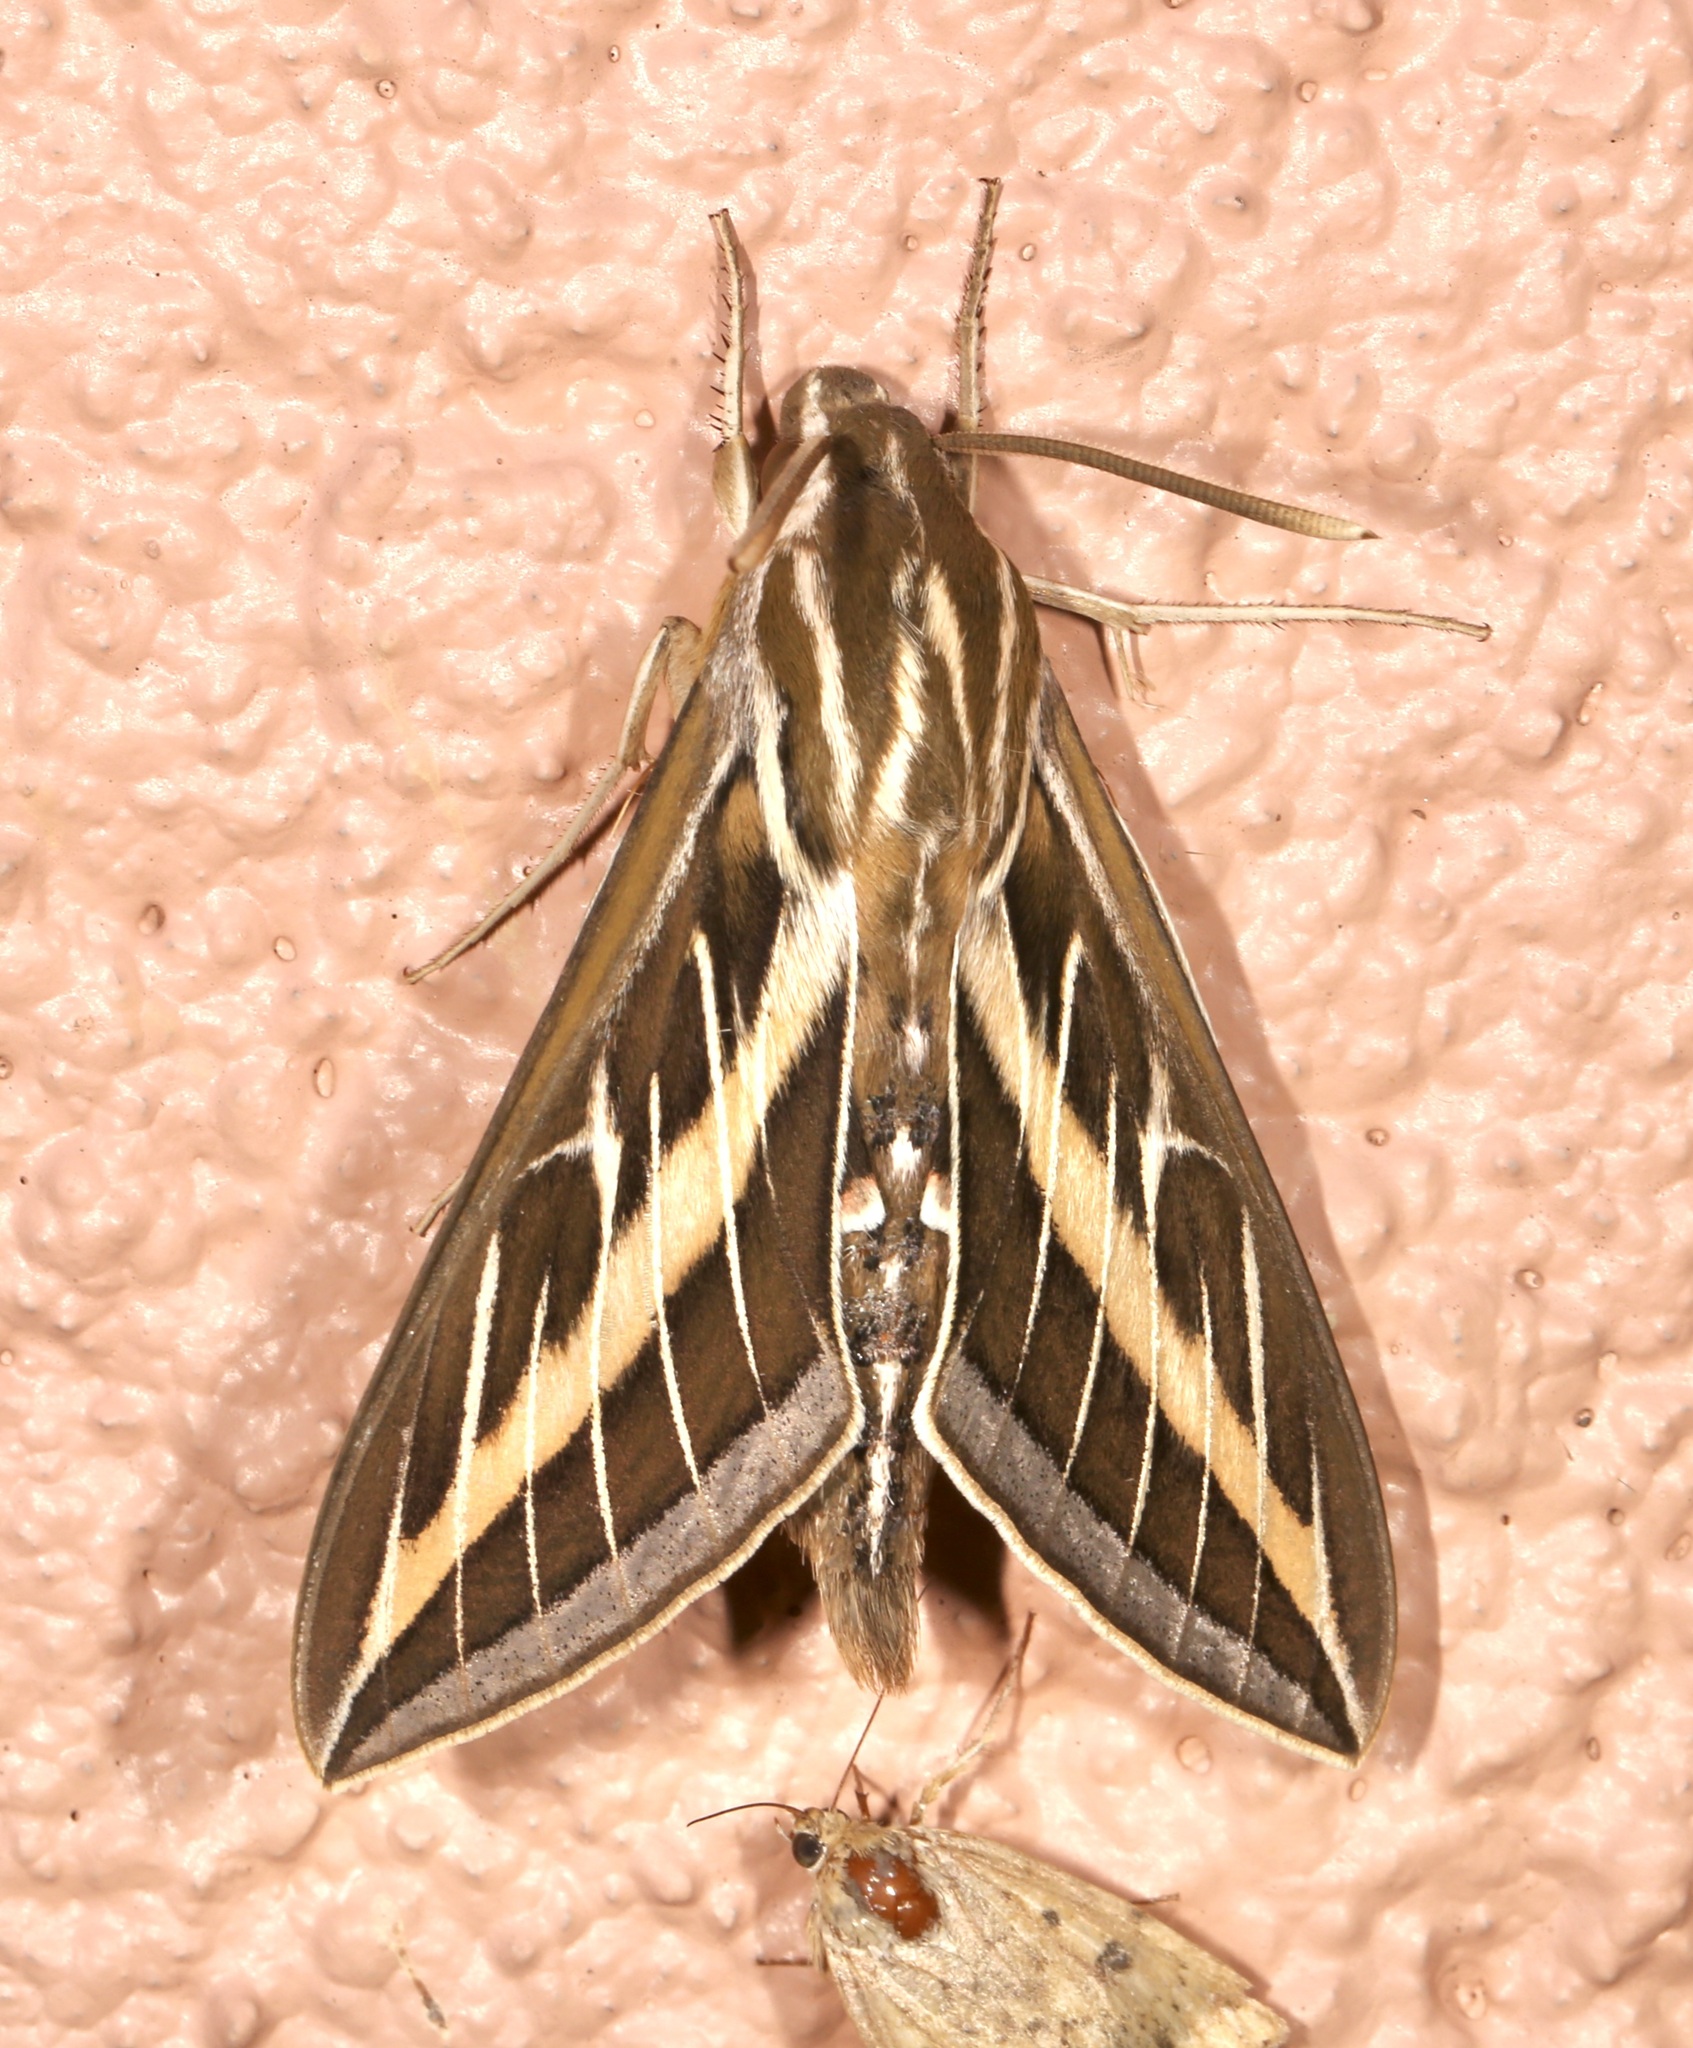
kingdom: Animalia
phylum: Arthropoda
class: Insecta
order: Lepidoptera
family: Sphingidae
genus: Hyles
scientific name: Hyles lineata
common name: White-lined sphinx
